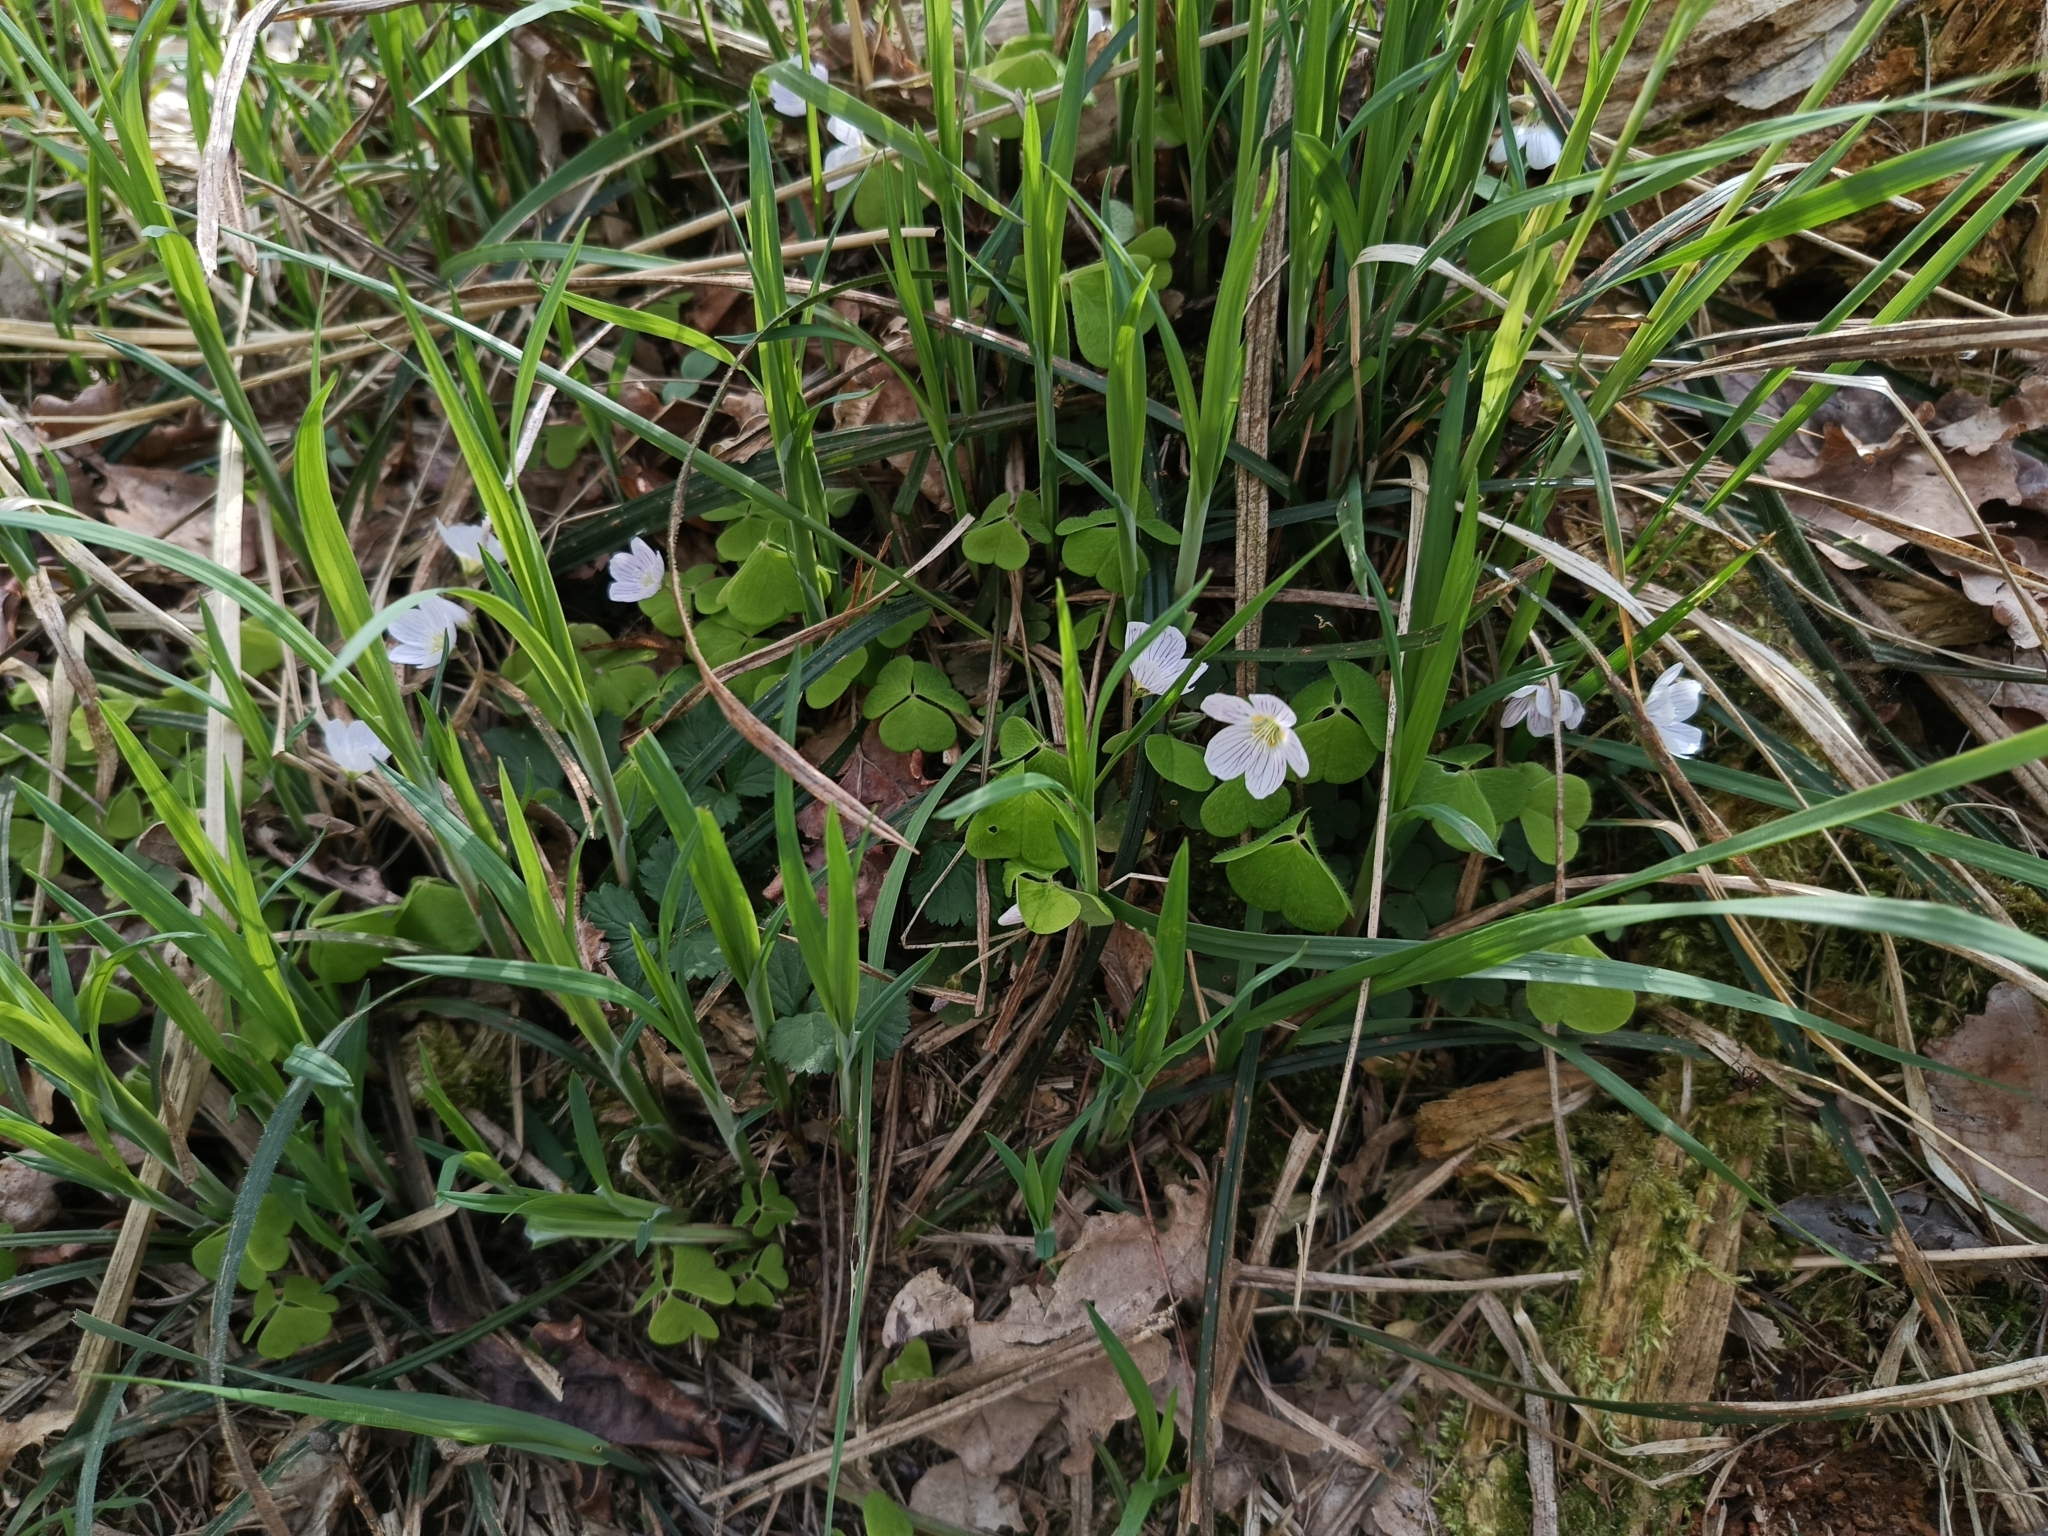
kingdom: Plantae
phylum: Tracheophyta
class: Magnoliopsida
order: Oxalidales
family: Oxalidaceae
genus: Oxalis
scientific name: Oxalis acetosella
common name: Wood-sorrel
